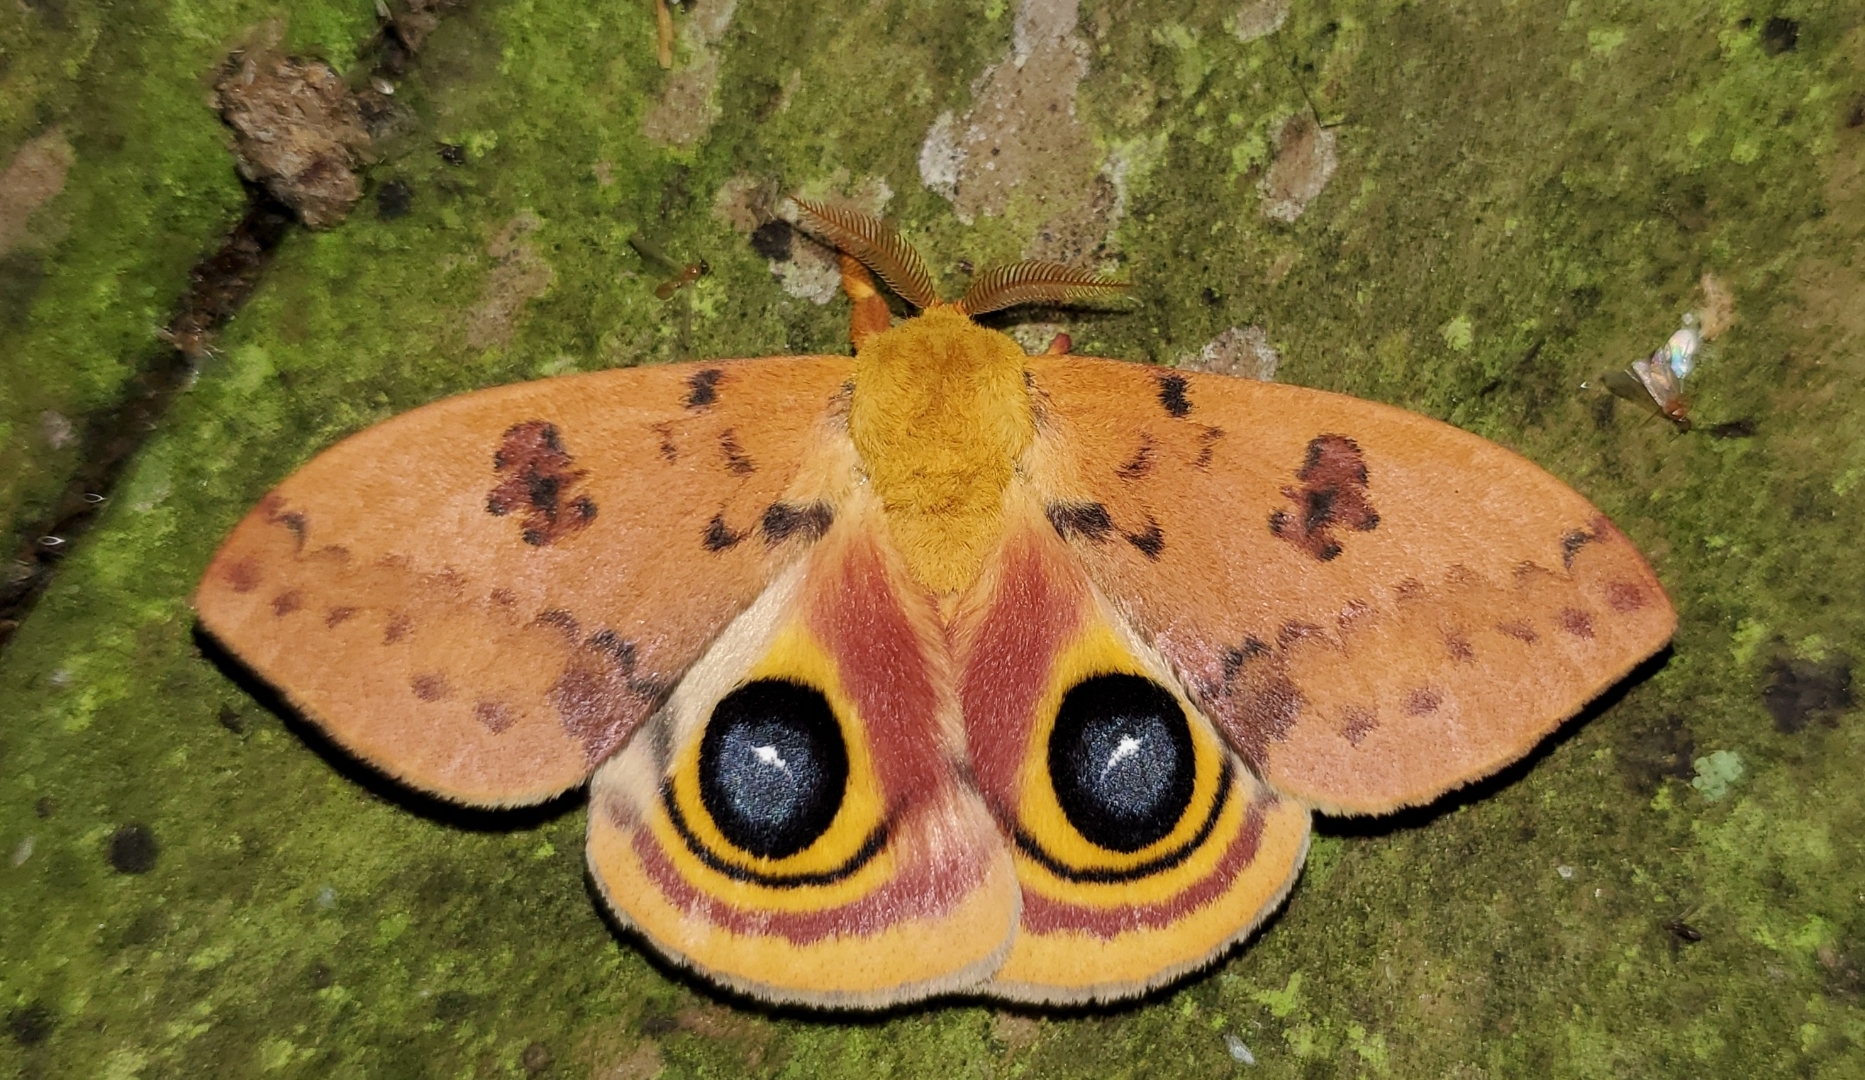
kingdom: Animalia
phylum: Arthropoda
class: Insecta
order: Lepidoptera
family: Saturniidae
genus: Automeris
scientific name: Automeris io
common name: Io moth
